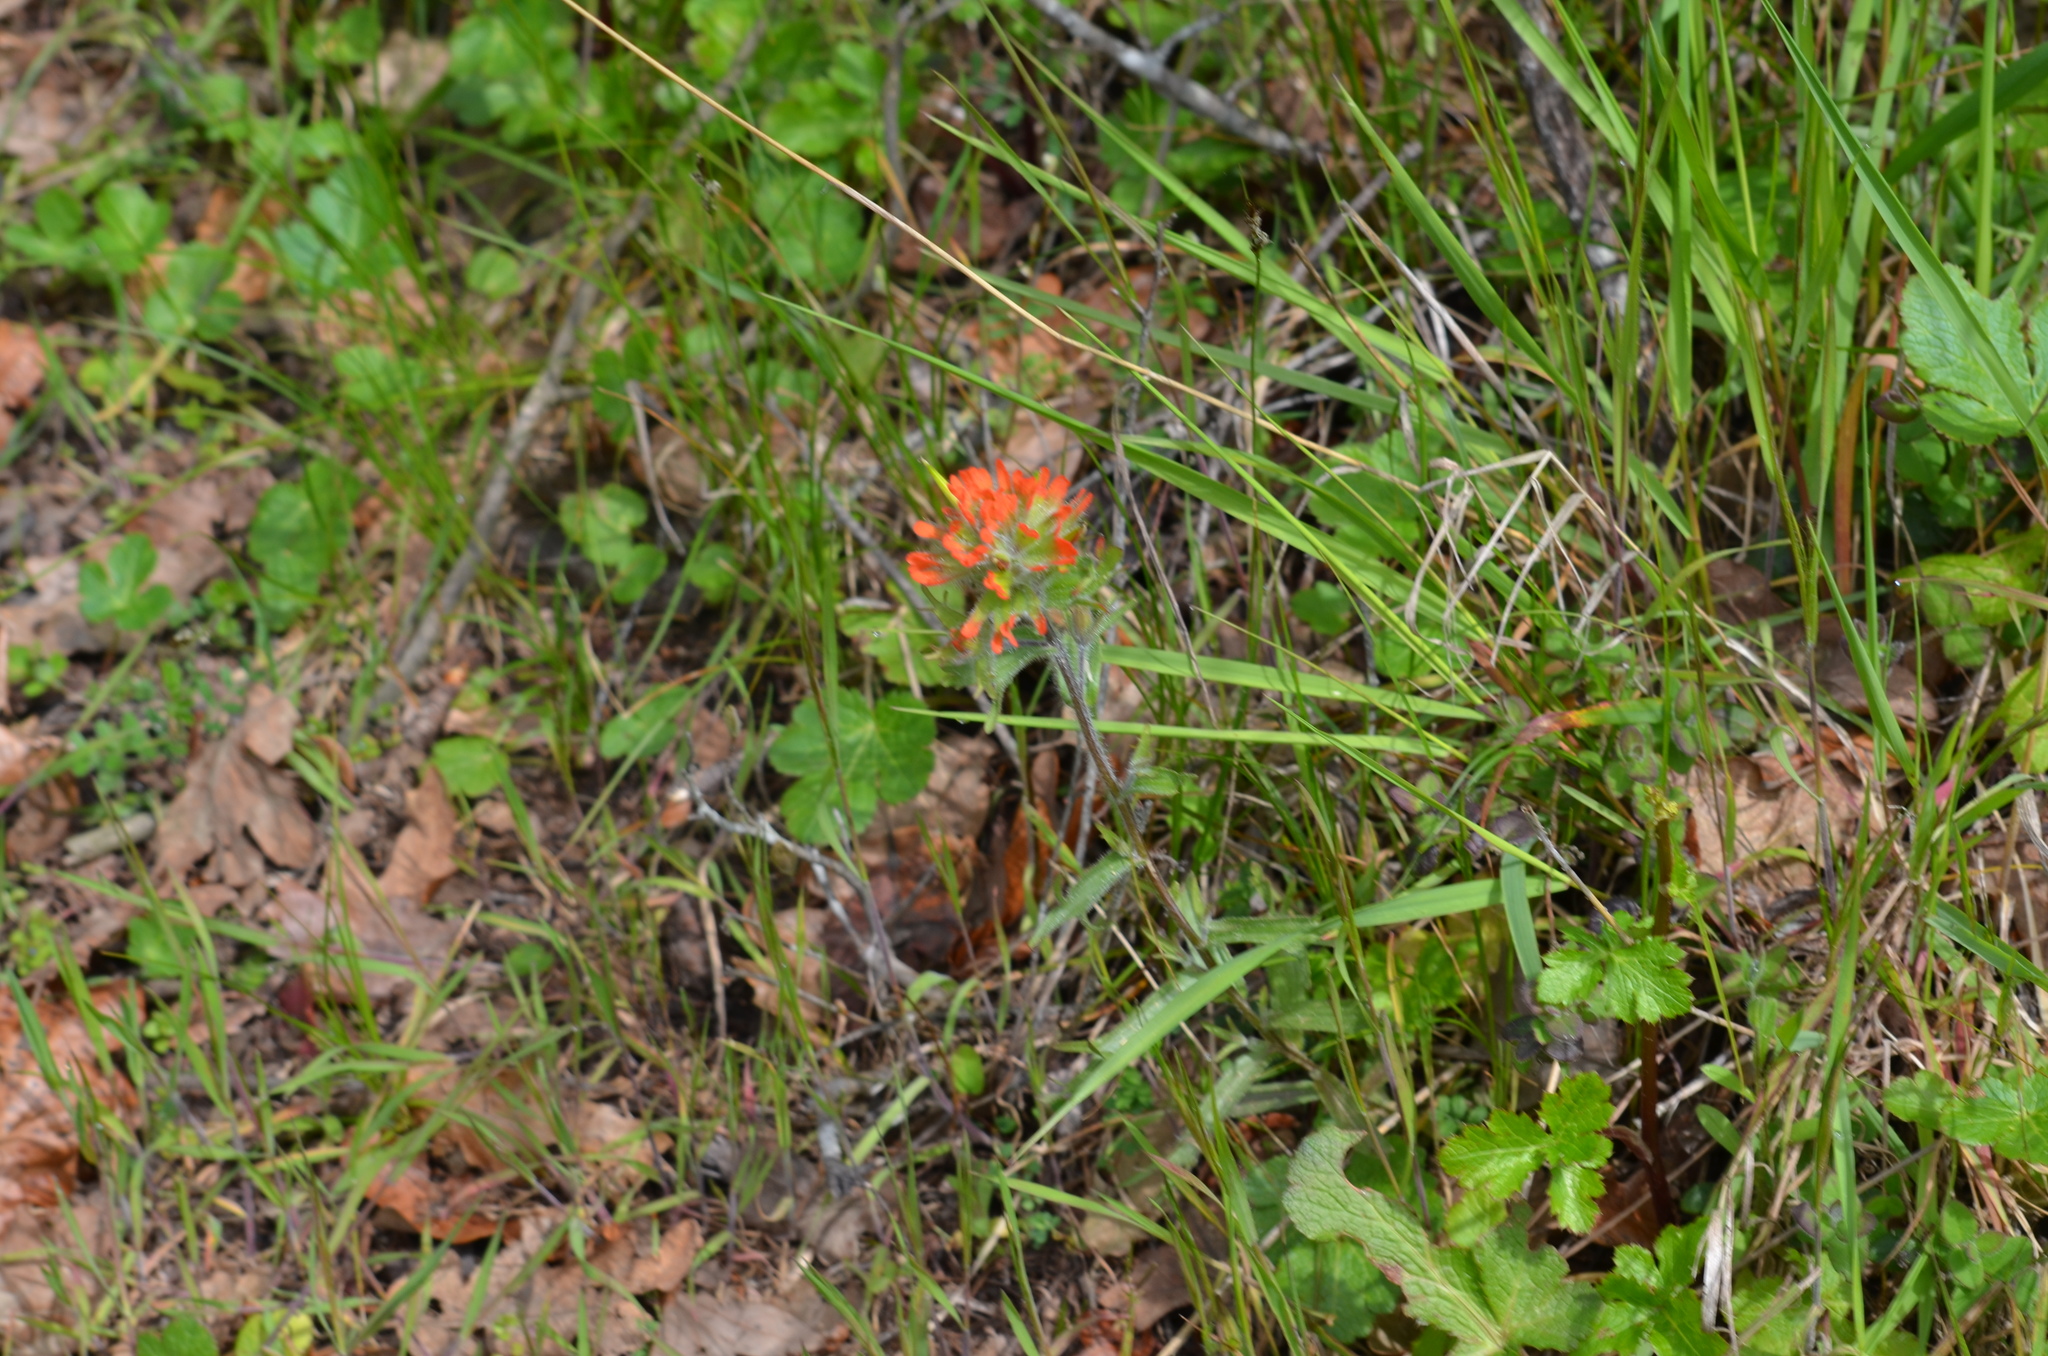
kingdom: Plantae
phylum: Tracheophyta
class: Magnoliopsida
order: Lamiales
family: Orobanchaceae
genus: Castilleja
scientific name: Castilleja hispida
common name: Bristly paintbrush
